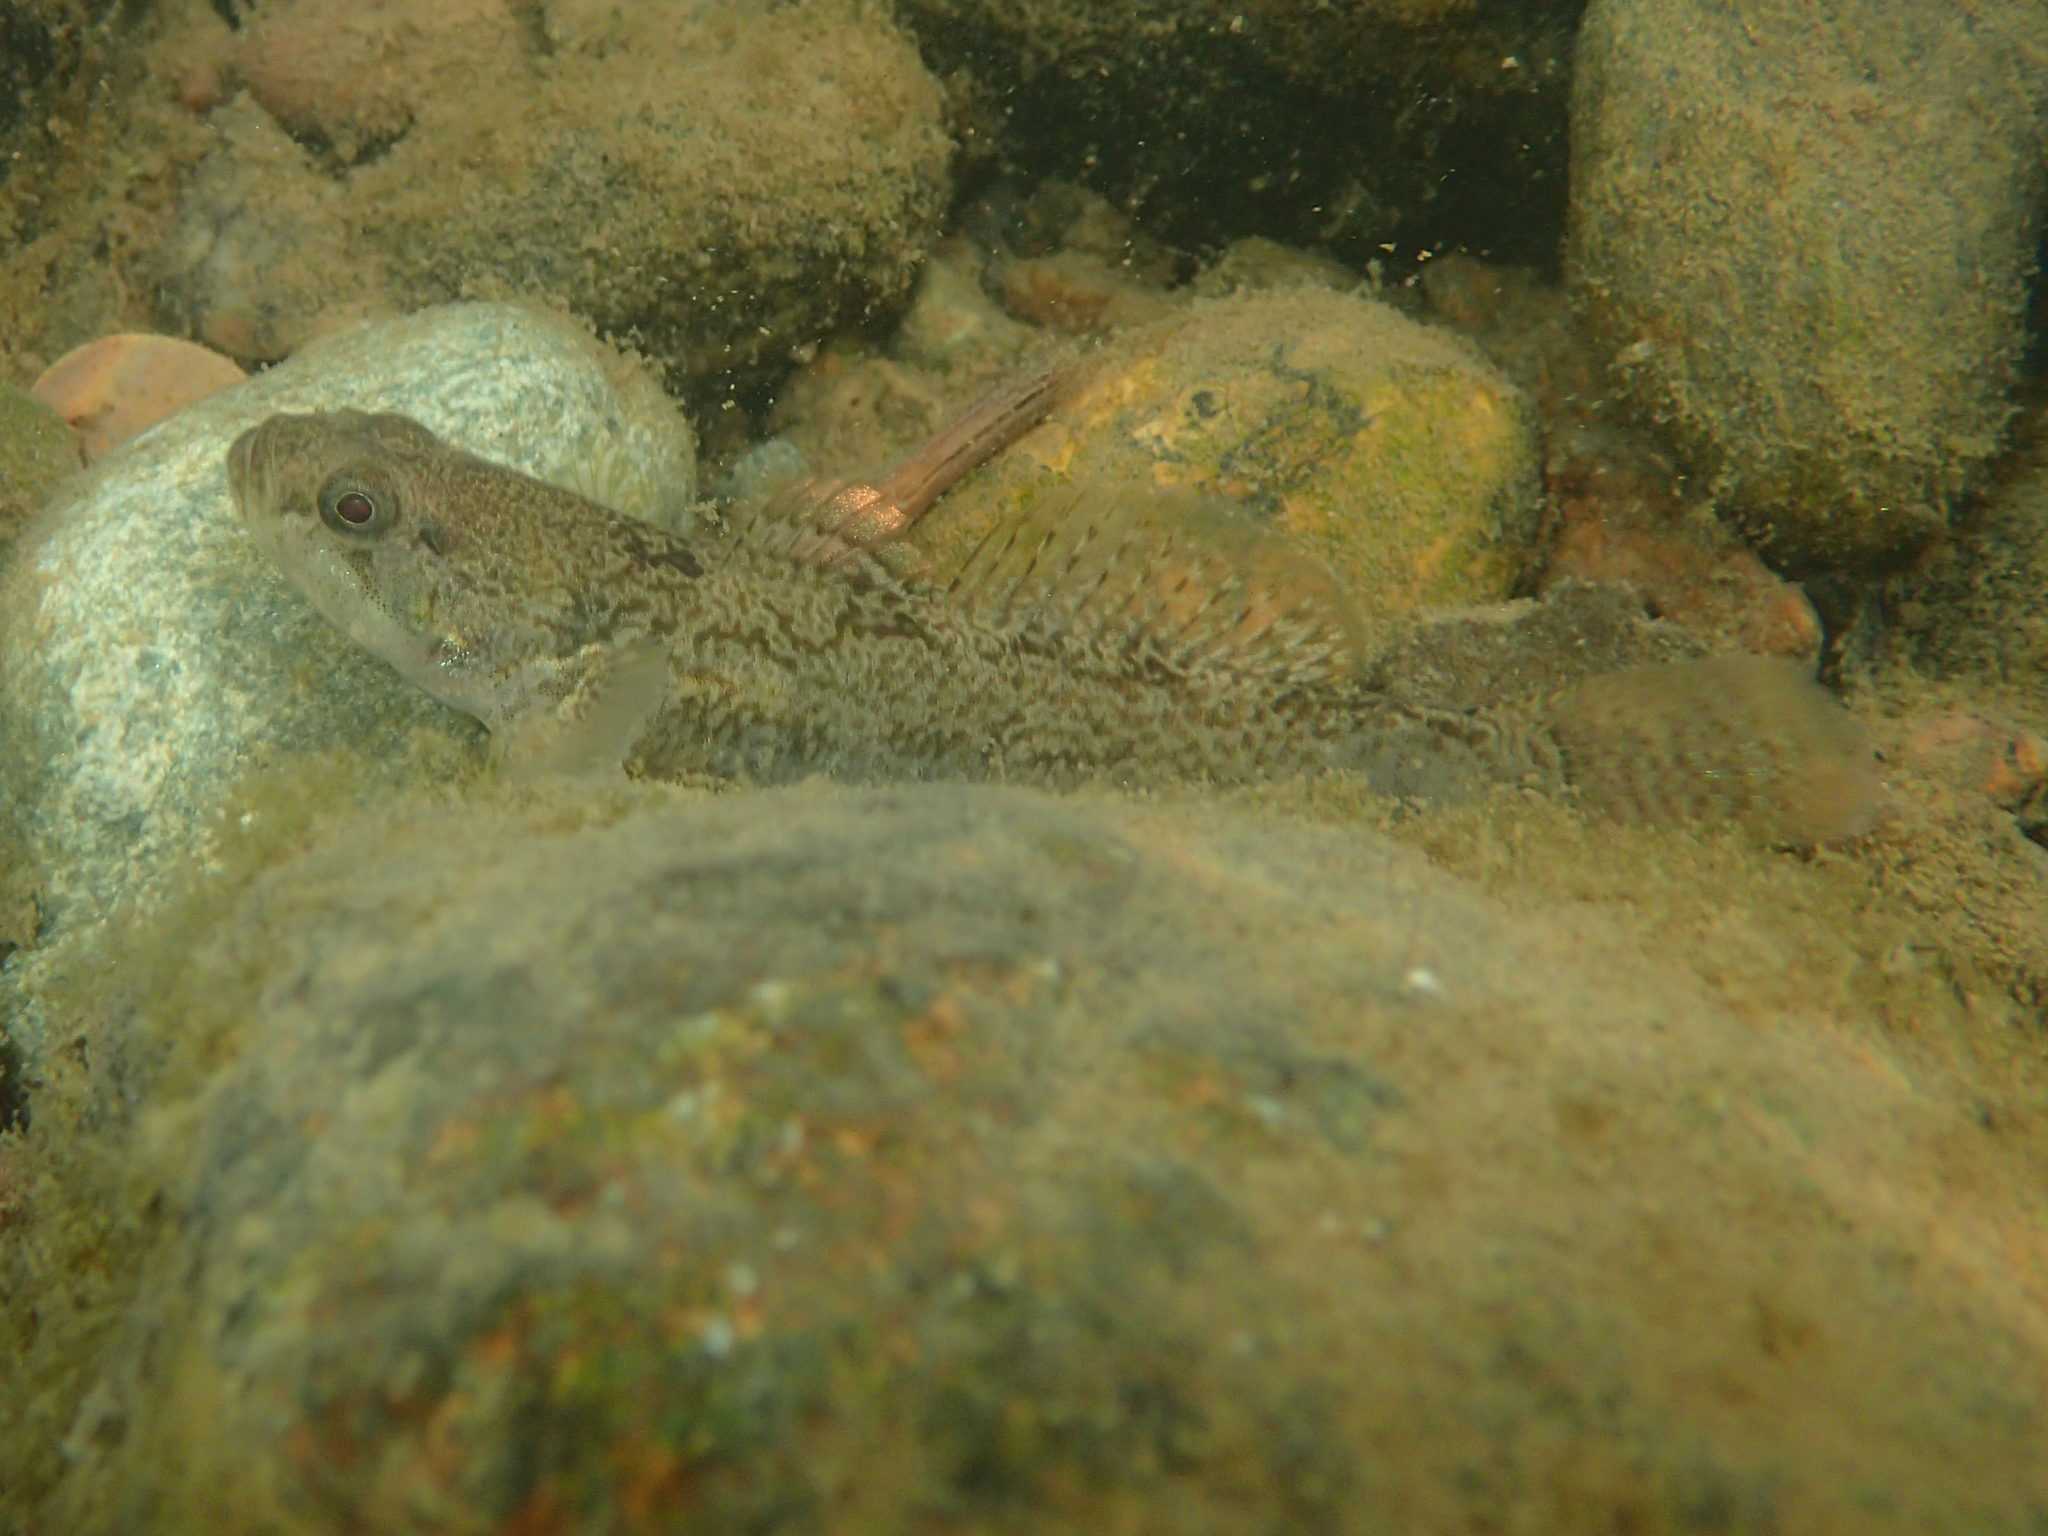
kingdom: Animalia
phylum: Chordata
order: Perciformes
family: Gobiidae
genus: Padogobius
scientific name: Padogobius bonelli
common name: Padanian goby
